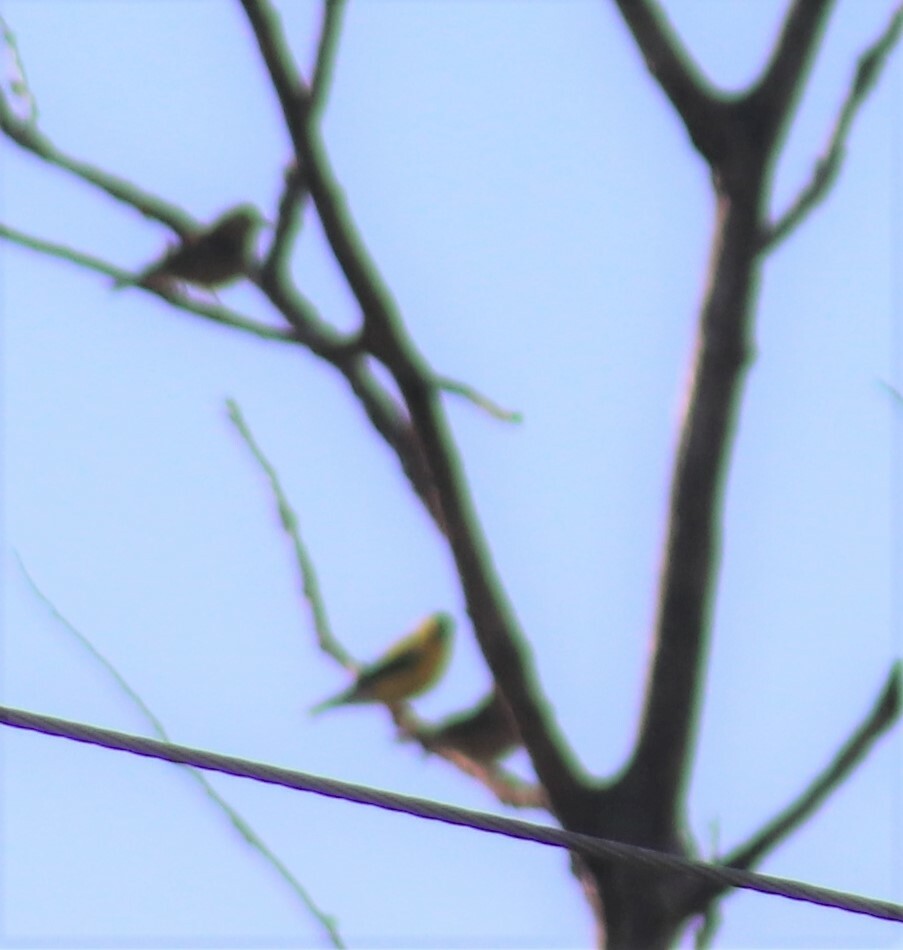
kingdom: Animalia
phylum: Chordata
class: Aves
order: Passeriformes
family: Fringillidae
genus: Spinus
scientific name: Spinus tristis
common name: American goldfinch
